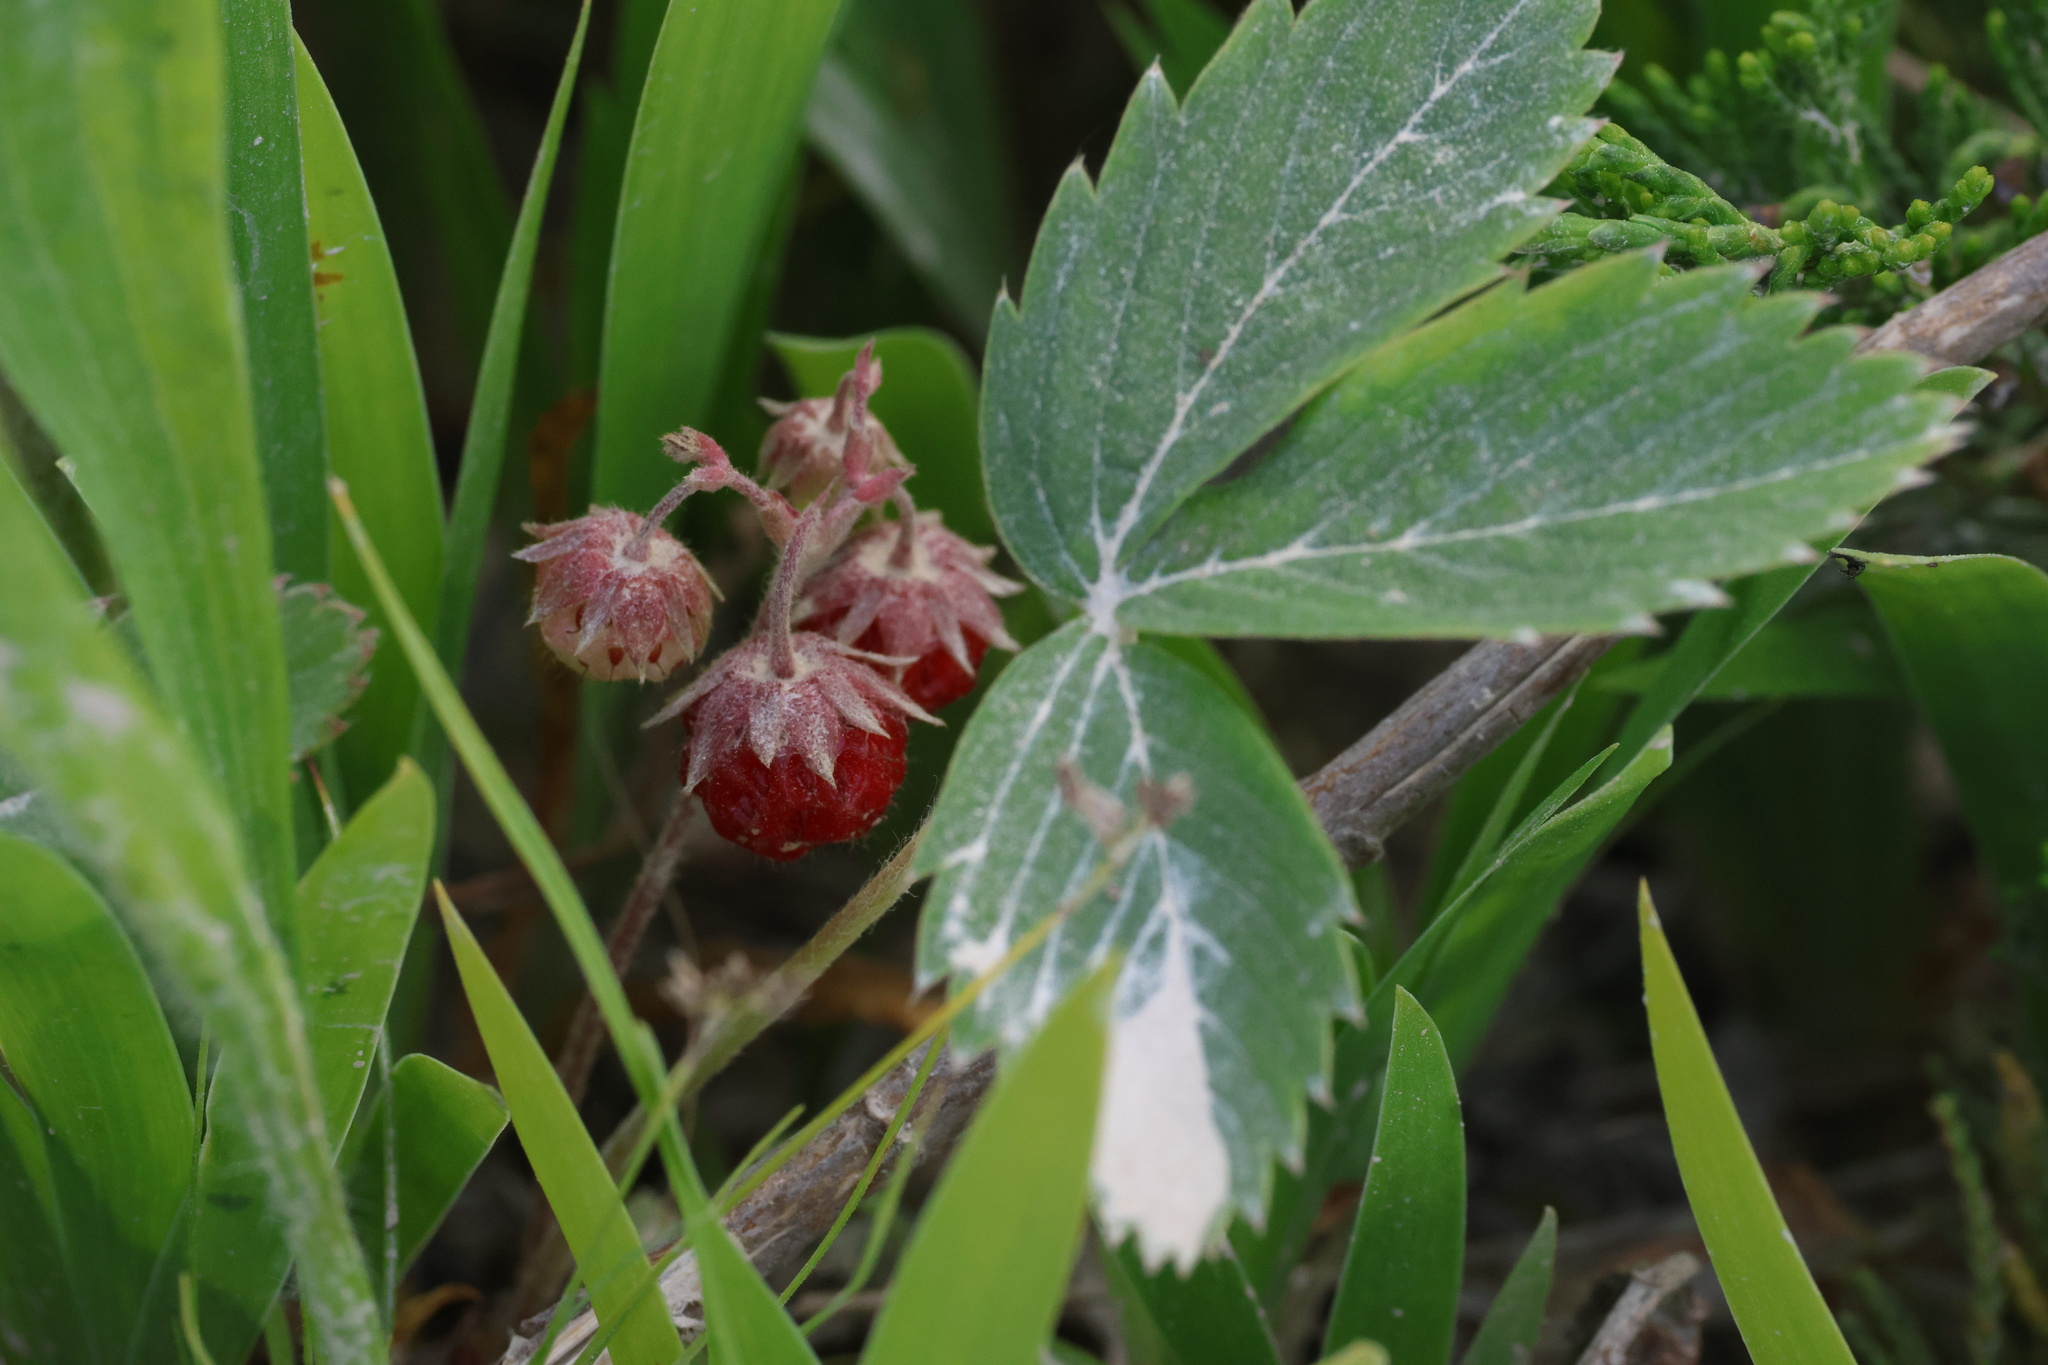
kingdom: Plantae
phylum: Tracheophyta
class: Magnoliopsida
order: Rosales
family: Rosaceae
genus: Fragaria
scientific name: Fragaria virginiana
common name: Thickleaved wild strawberry
